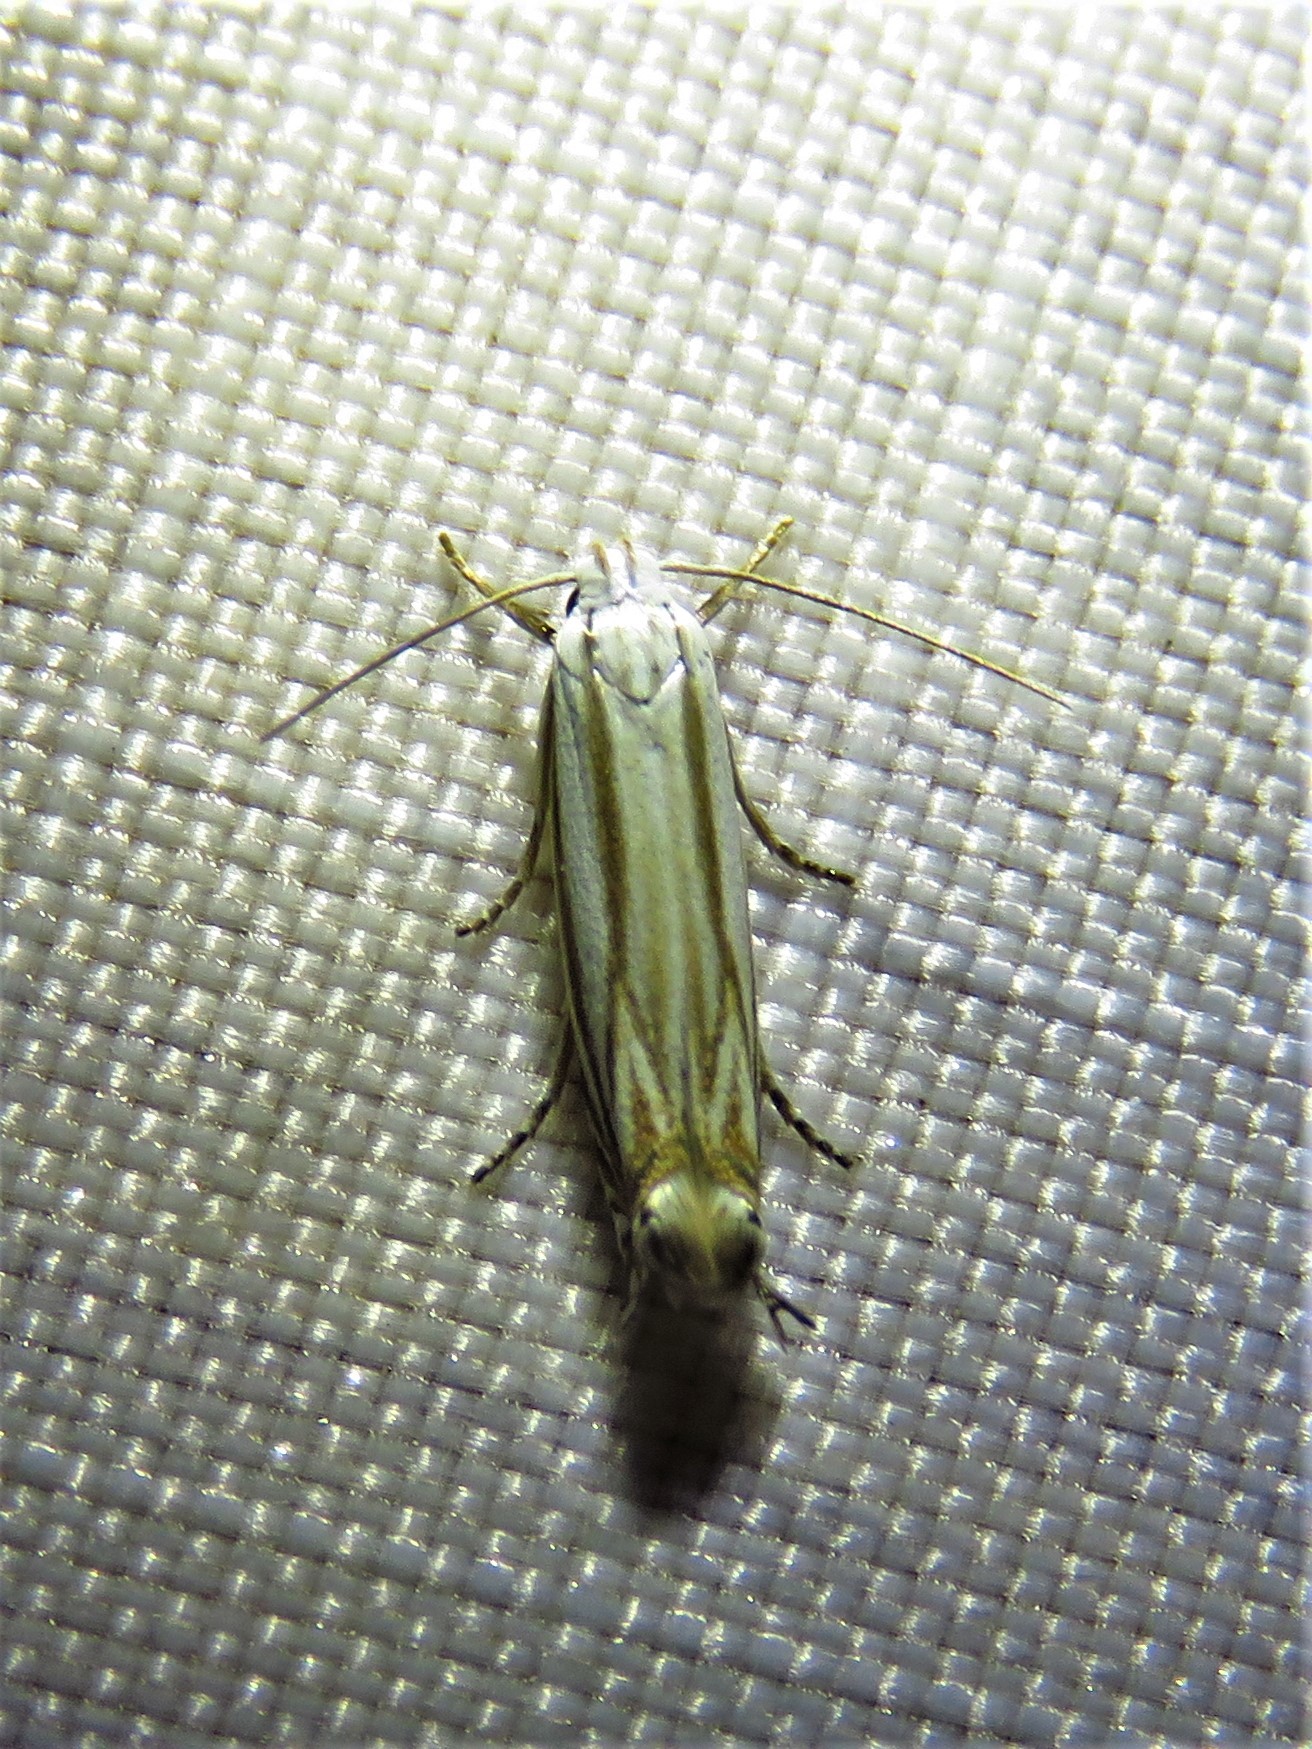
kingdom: Animalia
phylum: Arthropoda
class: Insecta
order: Lepidoptera
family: Gelechiidae
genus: Polyhymno
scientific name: Polyhymno luteostrigella
